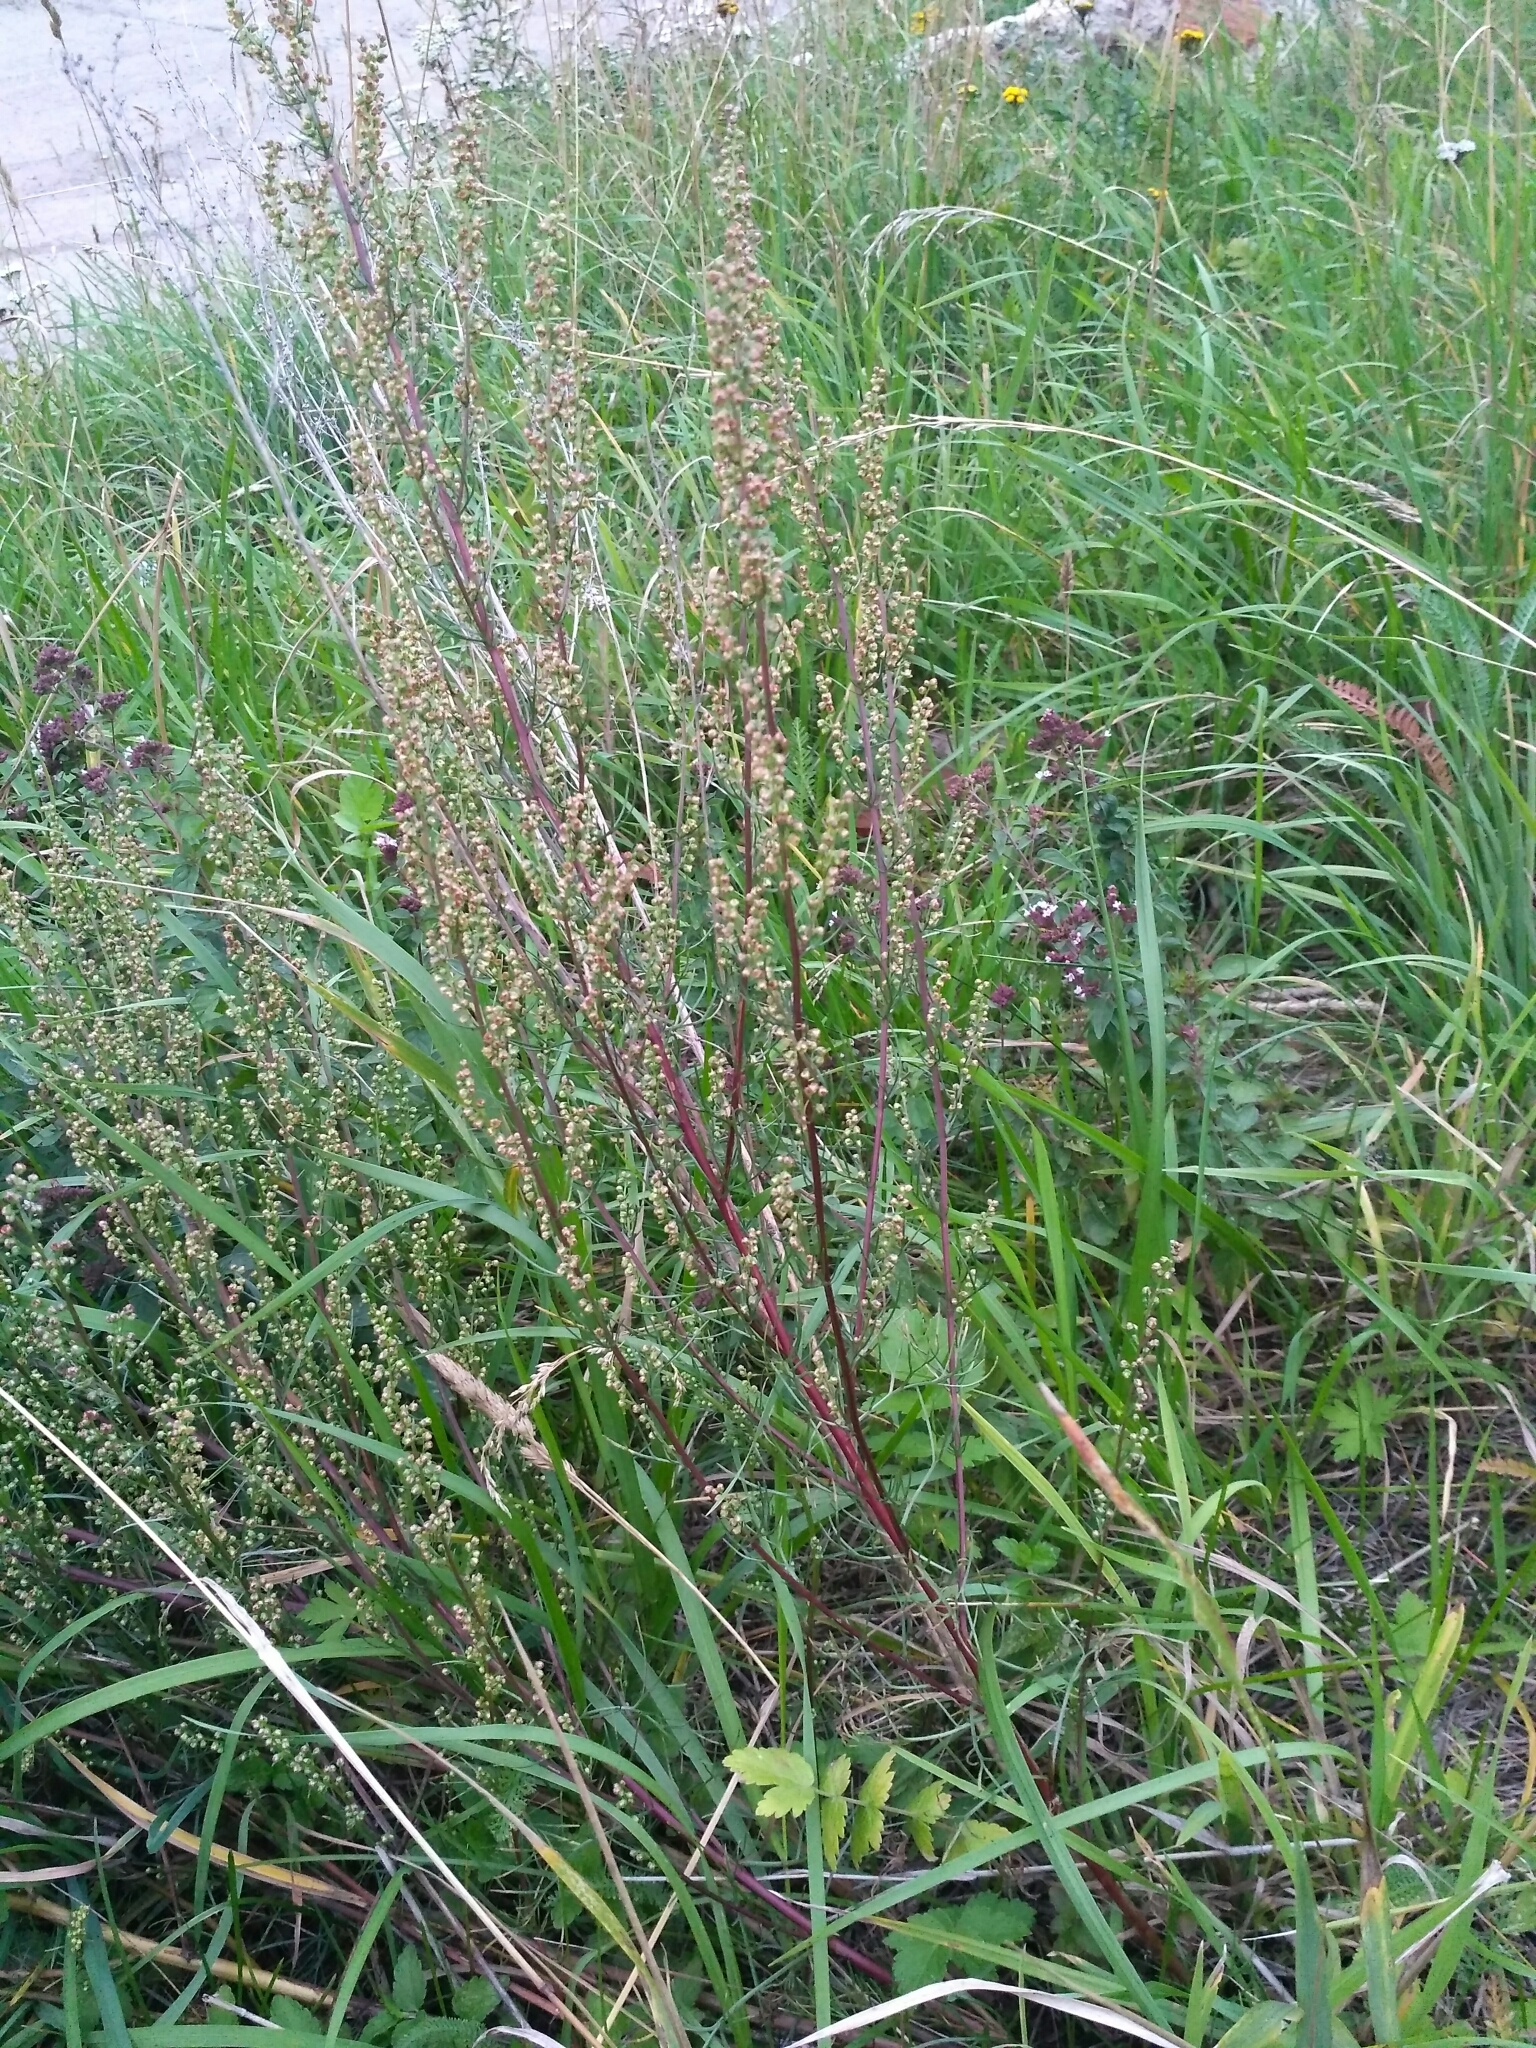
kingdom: Plantae
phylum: Tracheophyta
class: Magnoliopsida
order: Asterales
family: Asteraceae
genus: Artemisia
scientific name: Artemisia campestris
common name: Field wormwood
